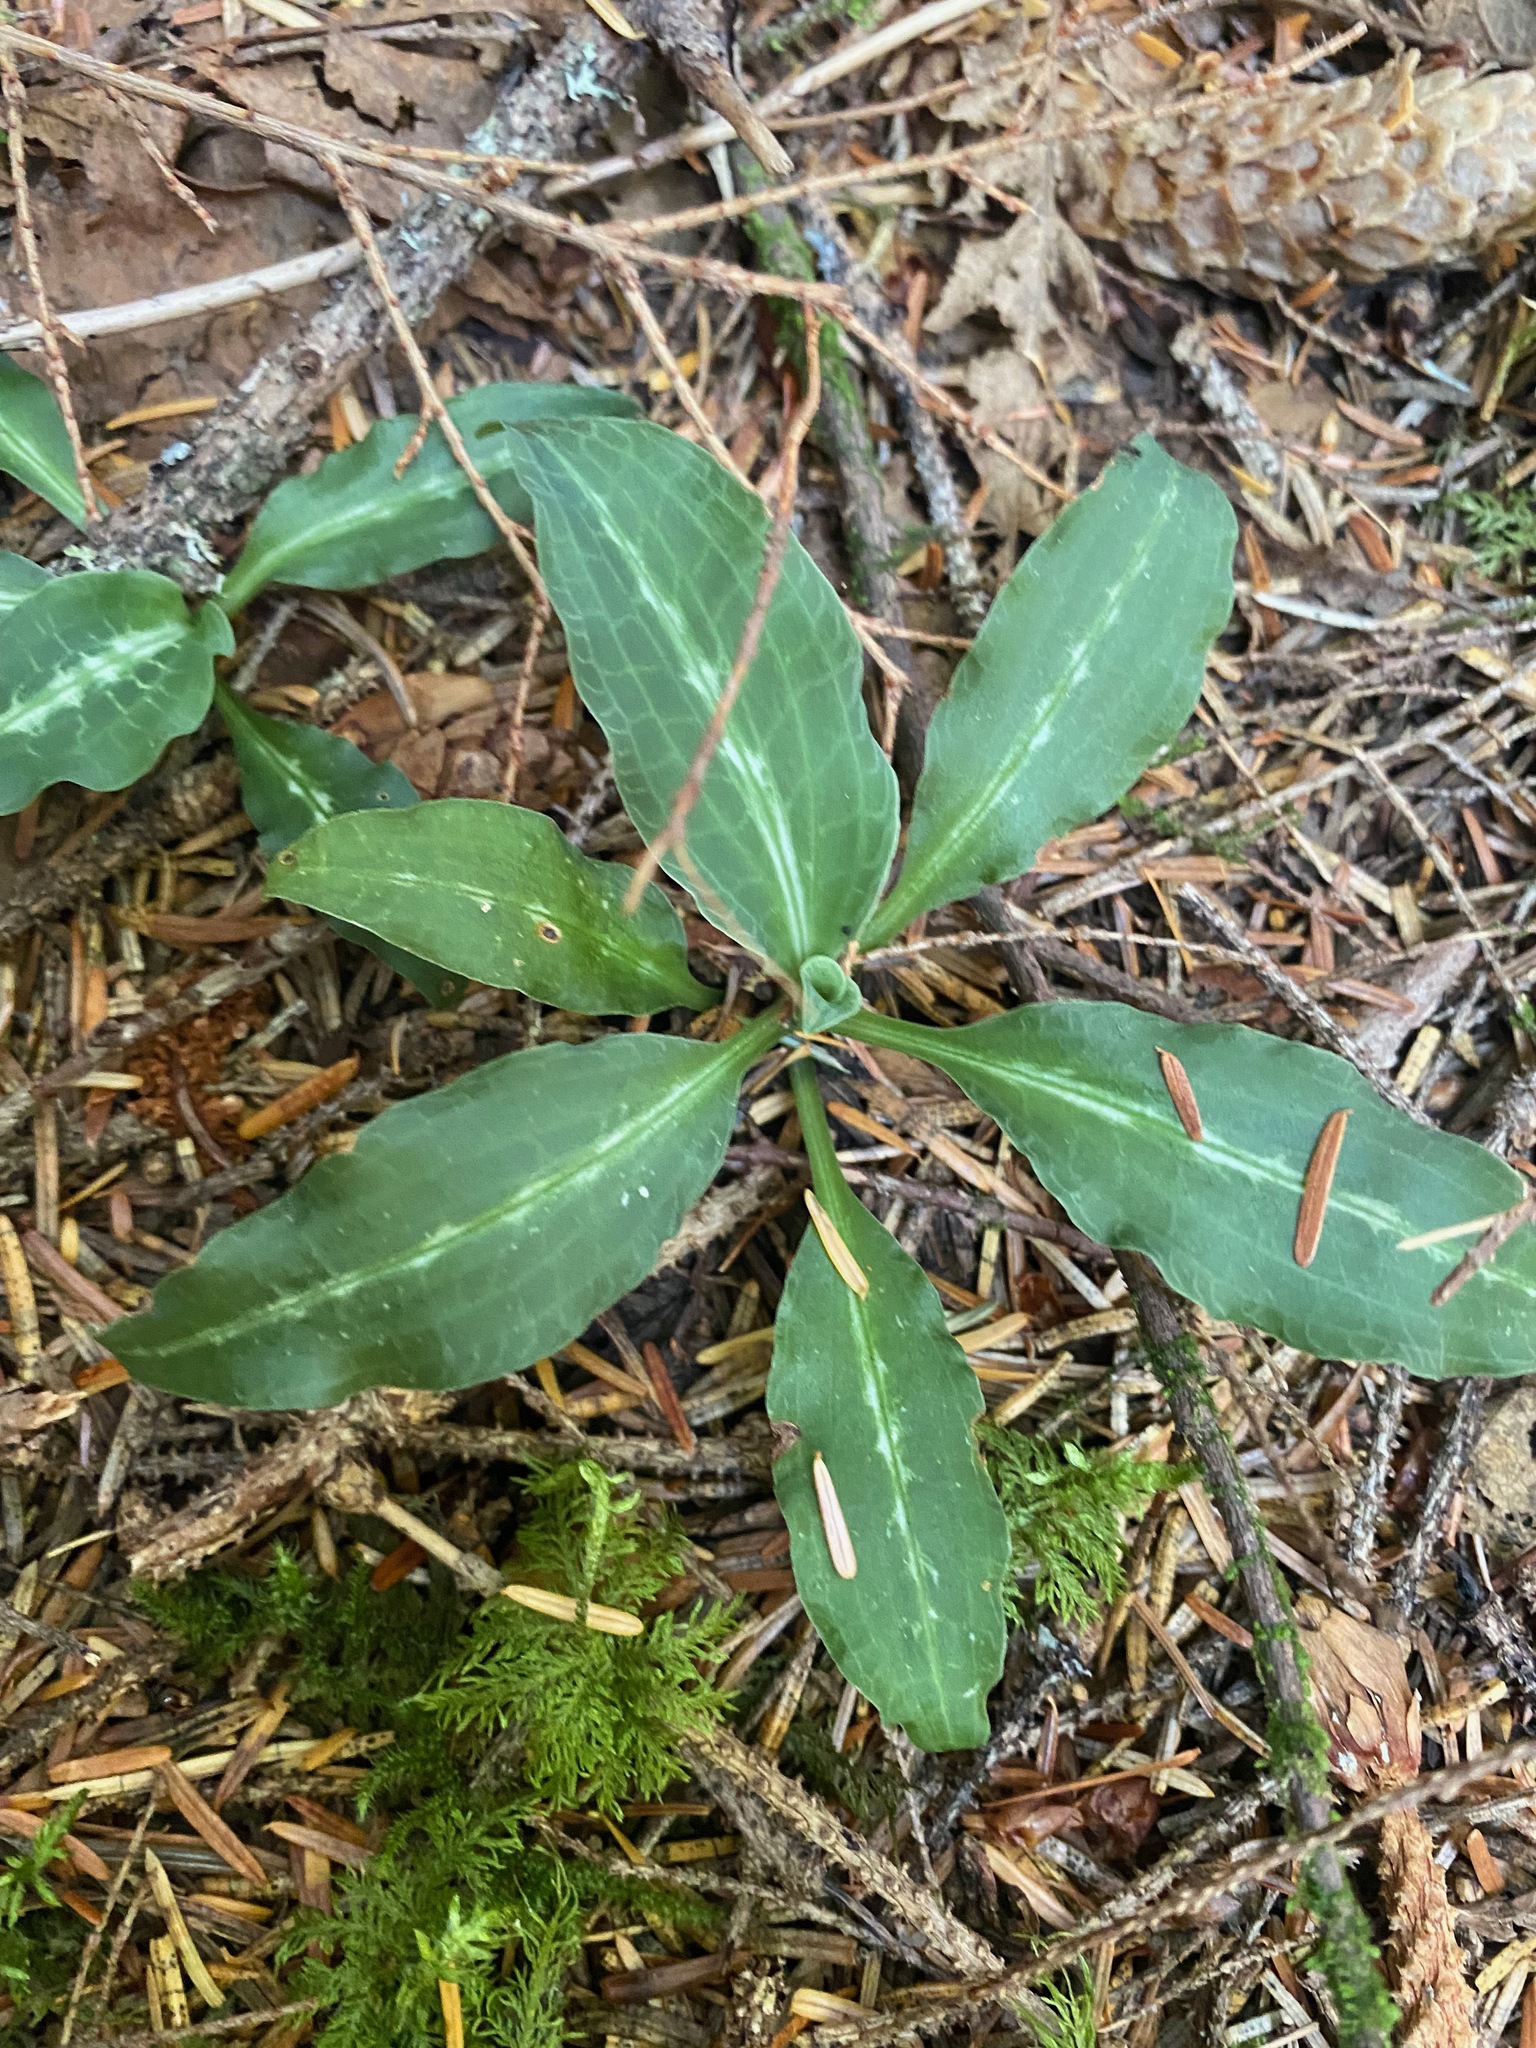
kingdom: Plantae
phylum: Tracheophyta
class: Liliopsida
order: Asparagales
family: Orchidaceae
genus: Goodyera
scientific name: Goodyera oblongifolia
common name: Giant rattlesnake-plantain
